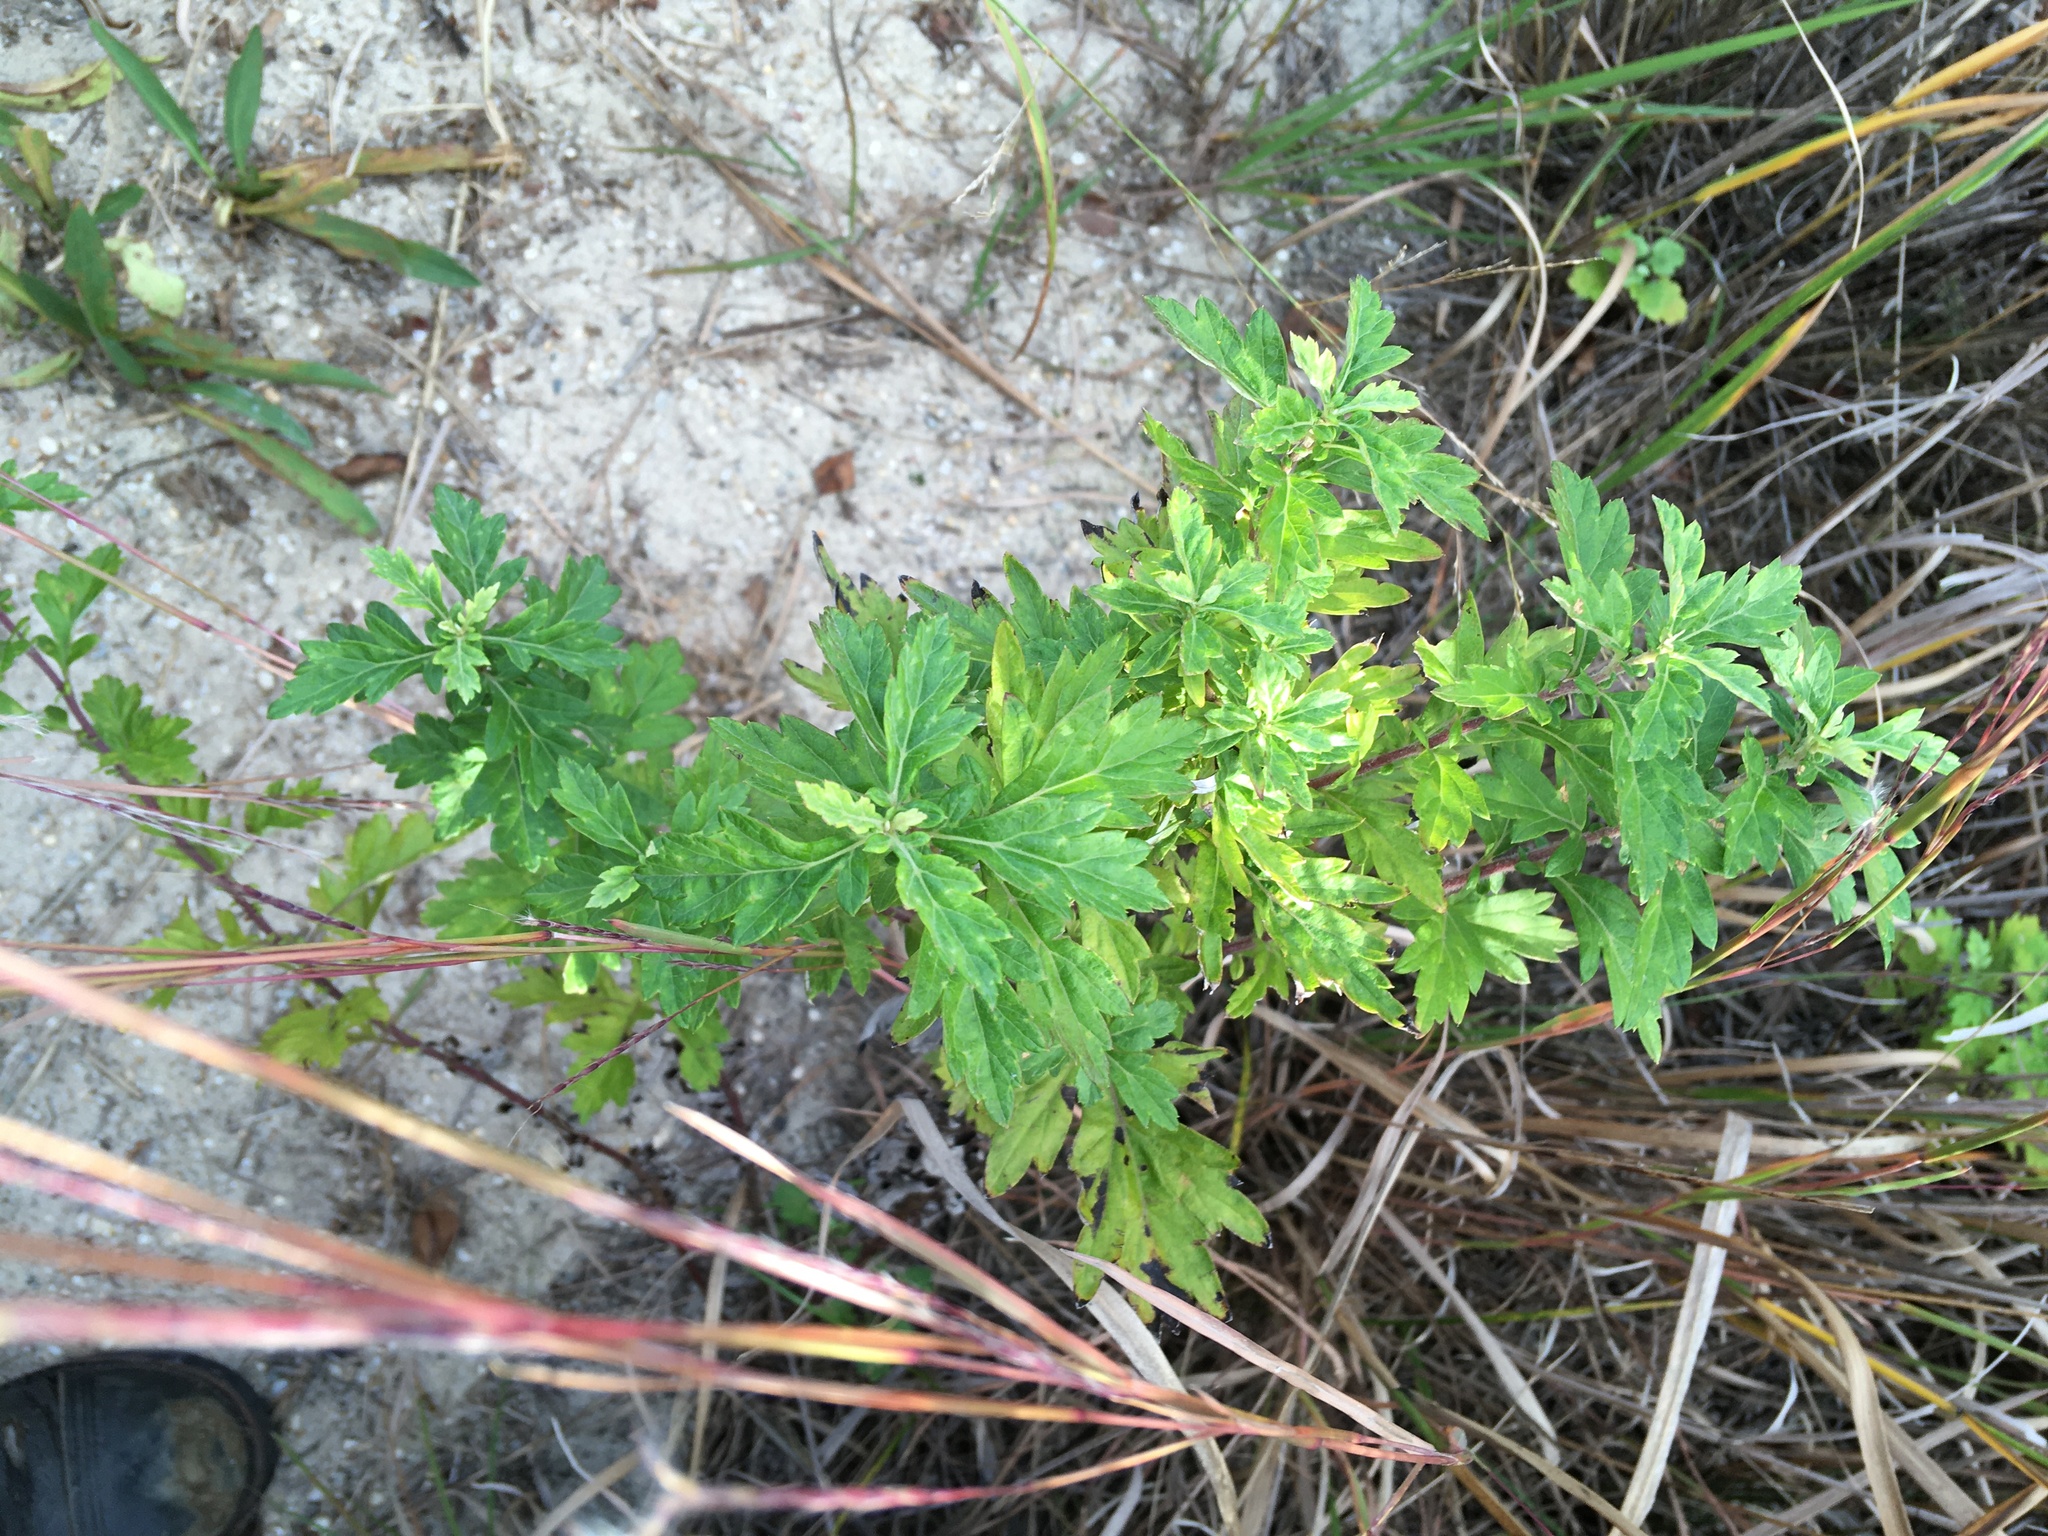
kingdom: Plantae
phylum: Tracheophyta
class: Magnoliopsida
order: Asterales
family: Asteraceae
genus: Artemisia
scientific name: Artemisia vulgaris
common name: Mugwort
